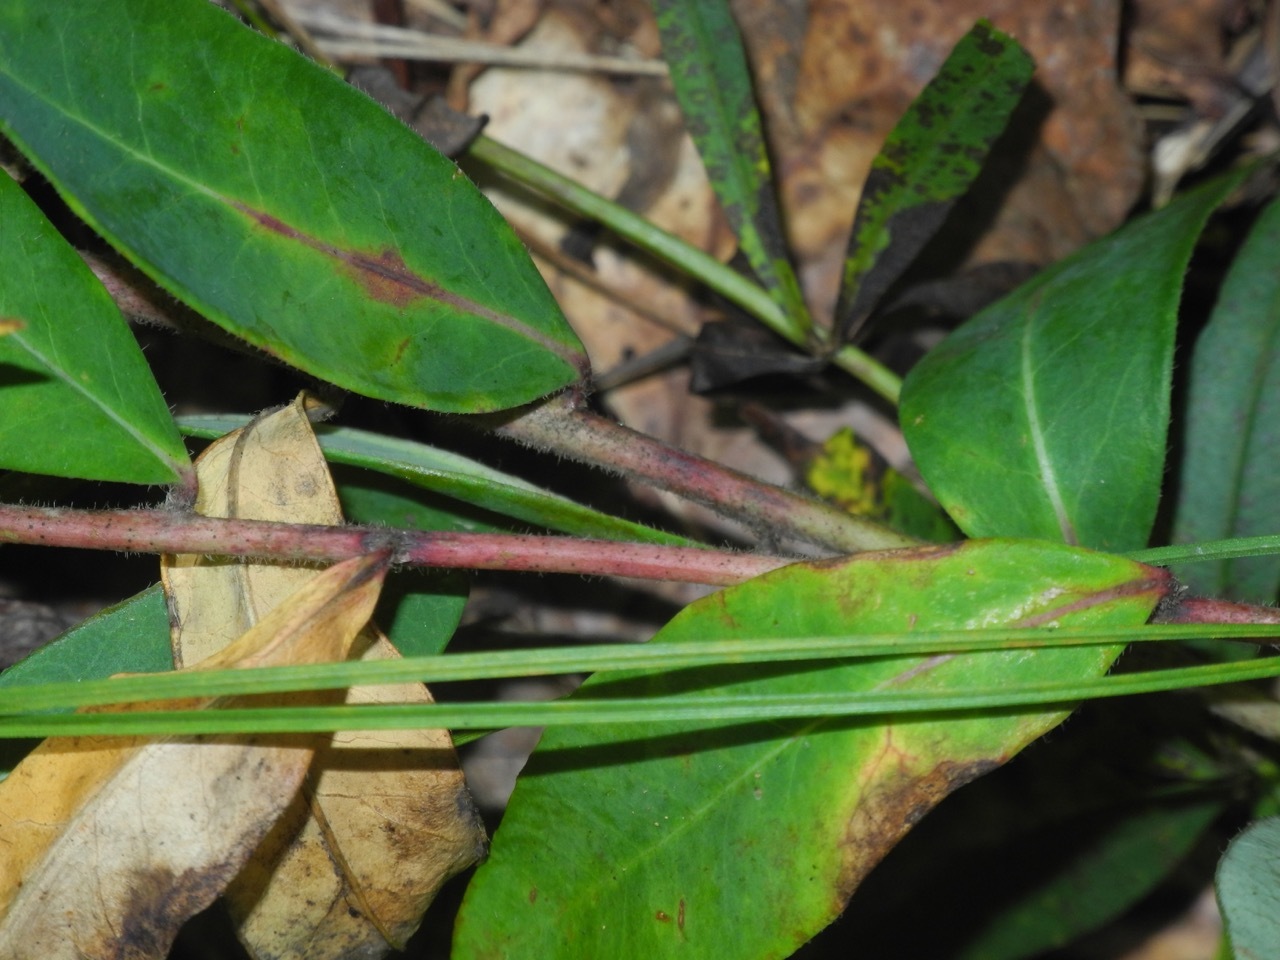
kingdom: Plantae
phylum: Tracheophyta
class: Magnoliopsida
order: Malpighiales
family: Euphorbiaceae
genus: Euphorbia
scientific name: Euphorbia corollata
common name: Flowering spurge
